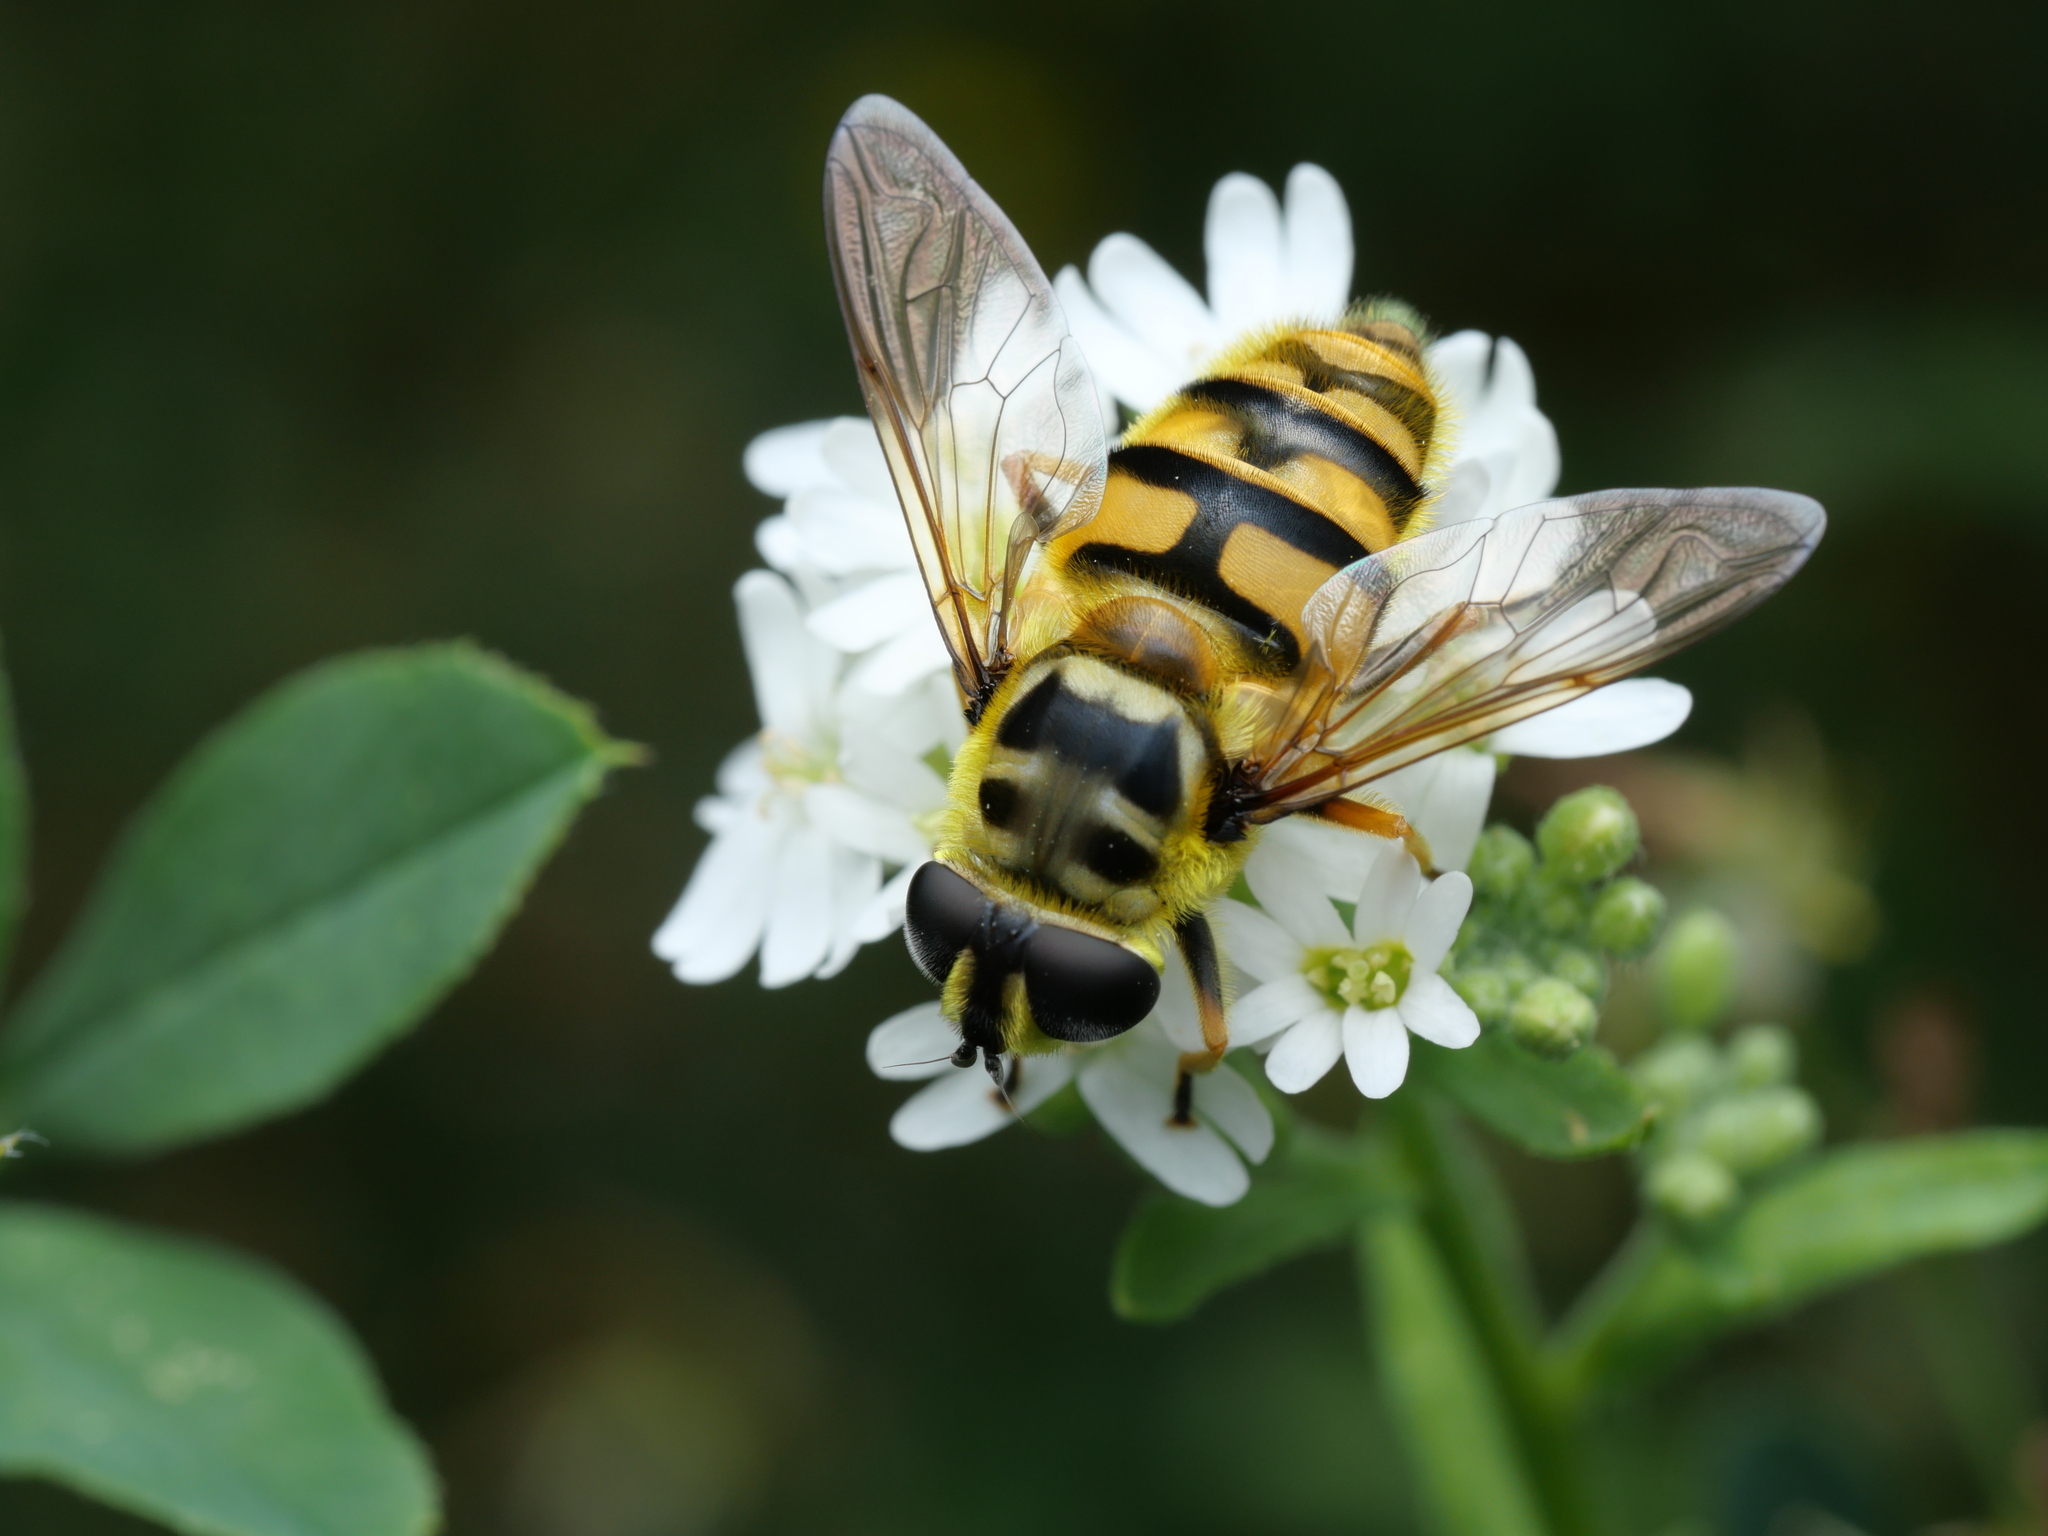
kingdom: Animalia
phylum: Arthropoda
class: Insecta
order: Diptera
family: Syrphidae
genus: Myathropa
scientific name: Myathropa florea
